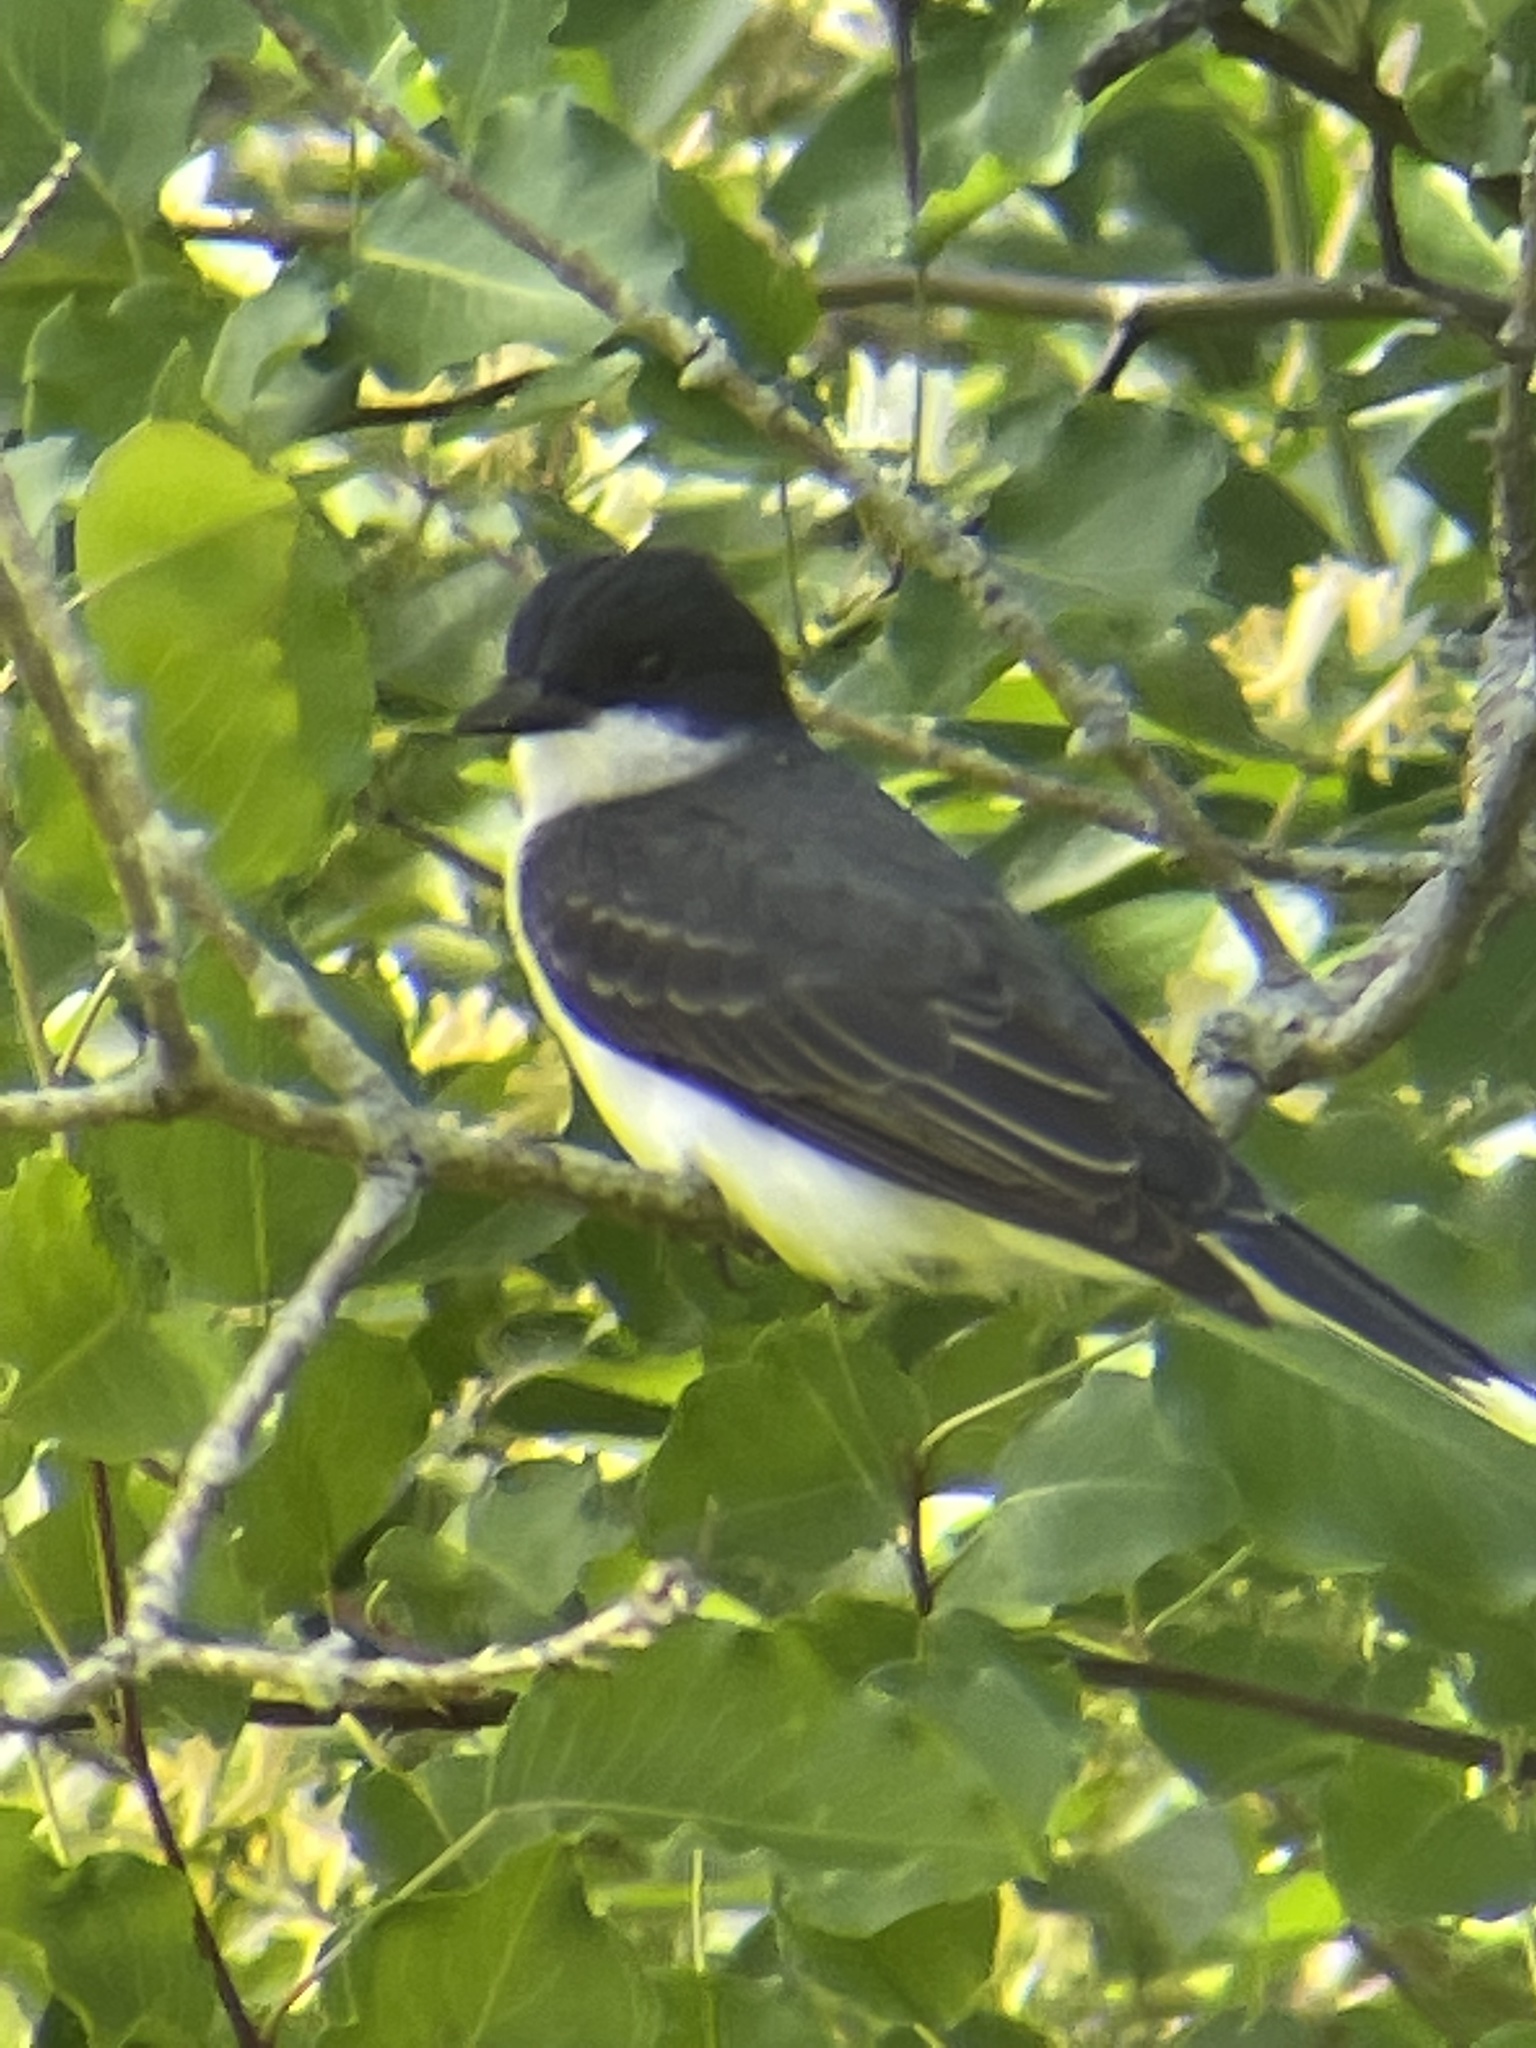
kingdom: Animalia
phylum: Chordata
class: Aves
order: Passeriformes
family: Tyrannidae
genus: Tyrannus
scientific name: Tyrannus tyrannus
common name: Eastern kingbird
